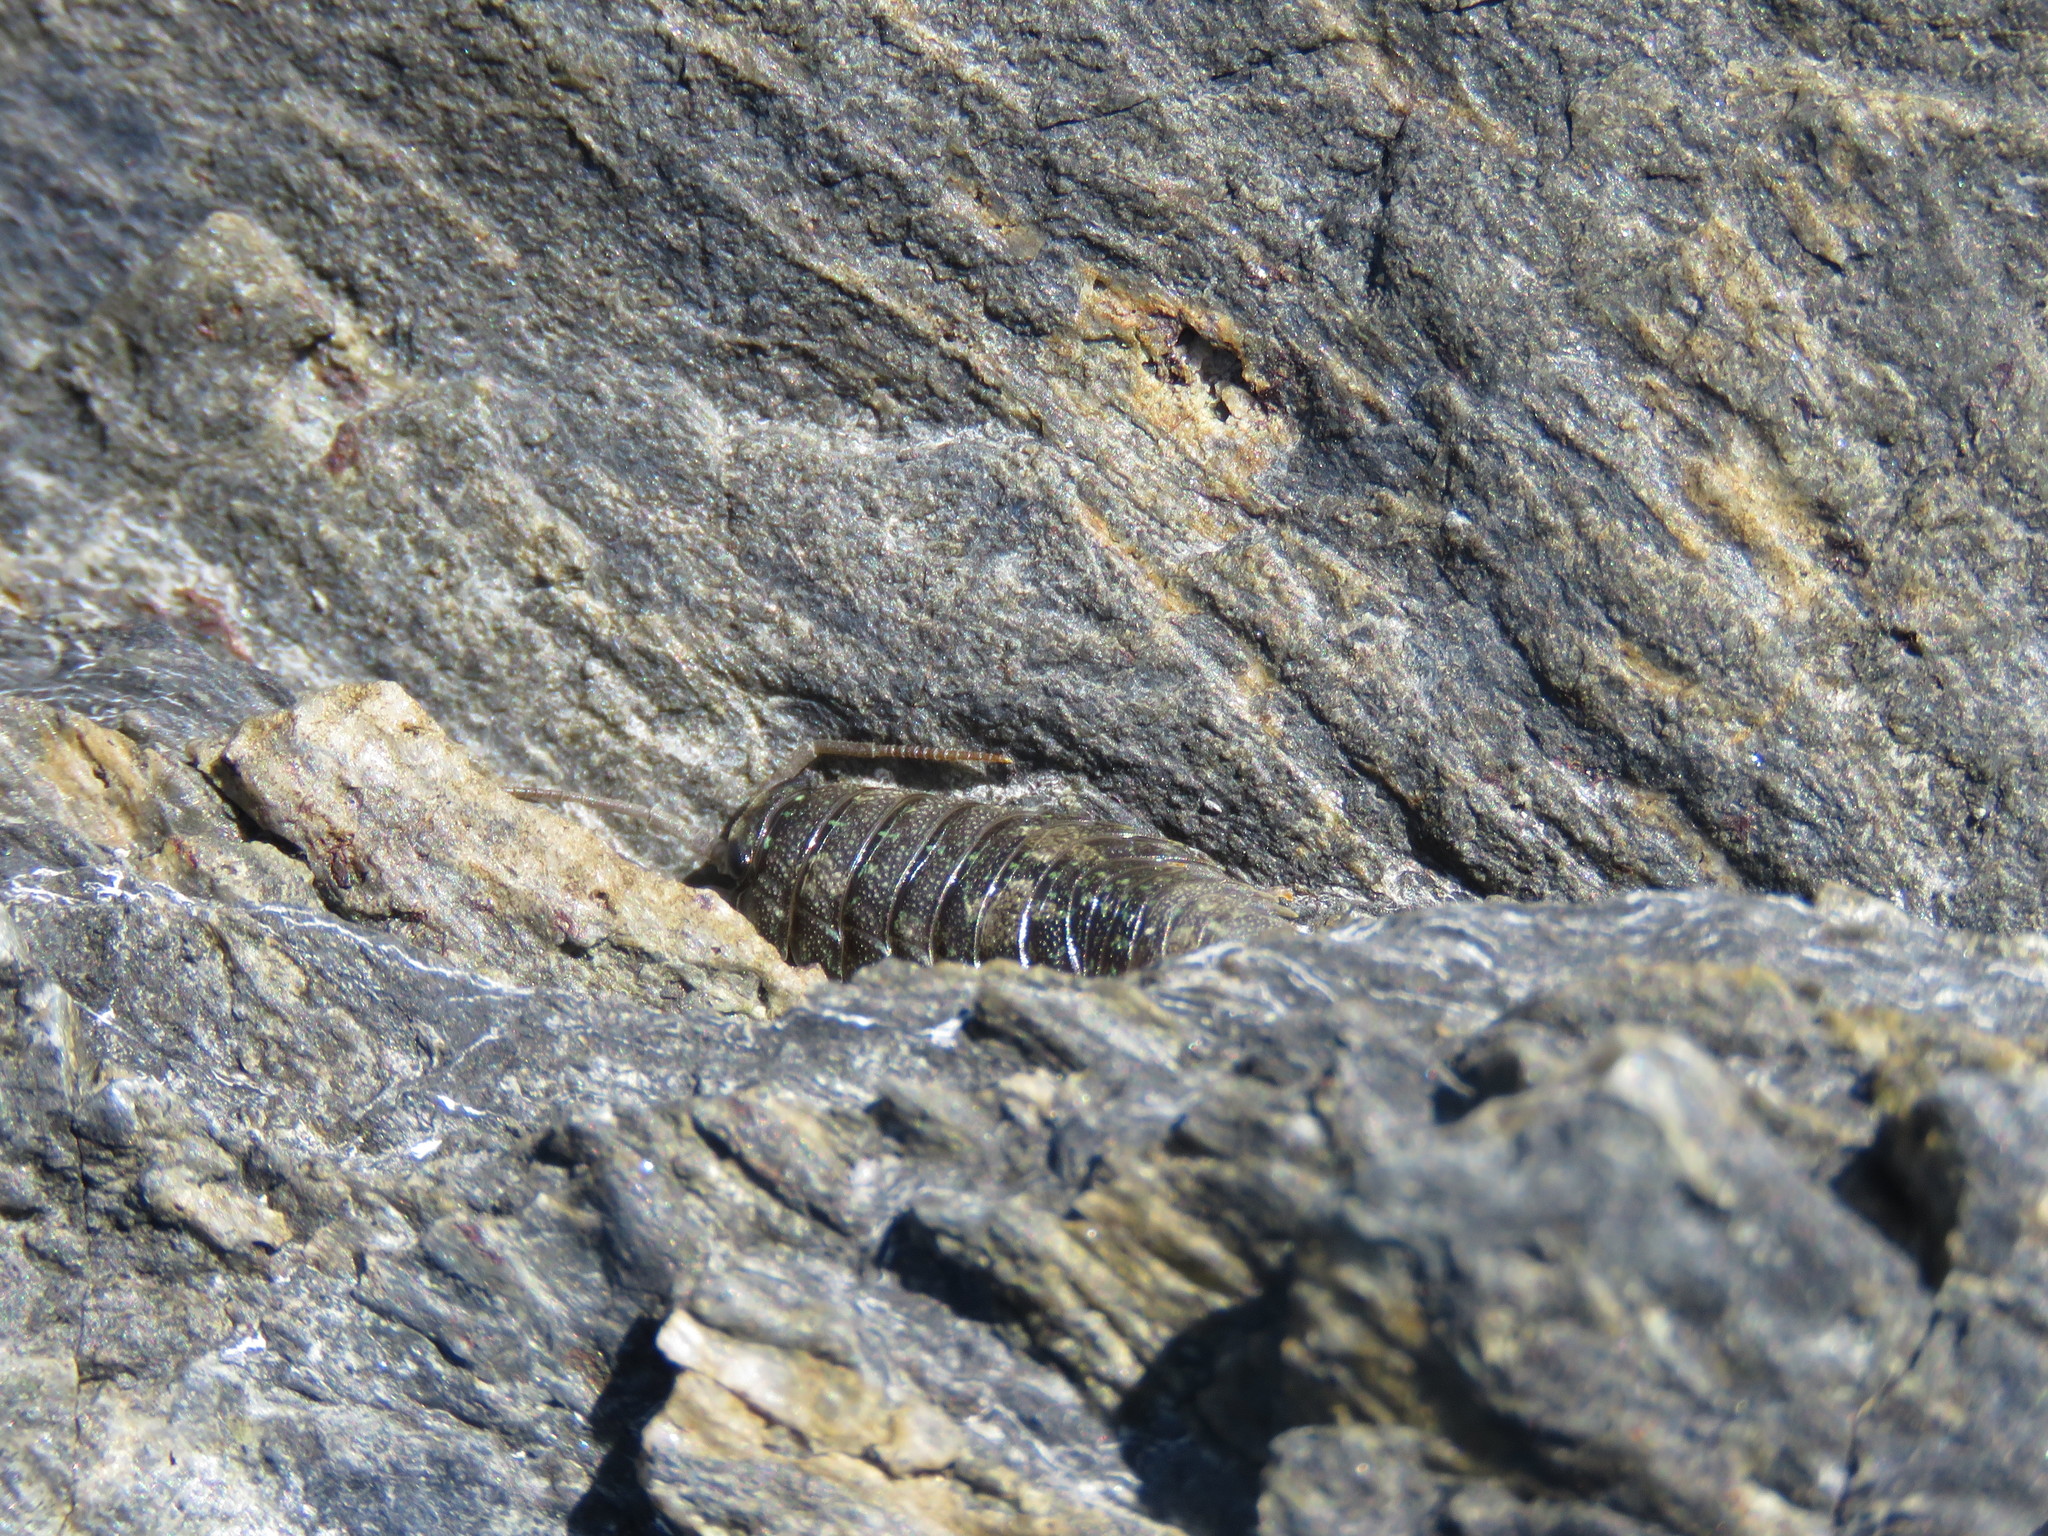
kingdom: Animalia
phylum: Arthropoda
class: Malacostraca
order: Isopoda
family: Ligiidae
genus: Ligia
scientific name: Ligia pallasii
